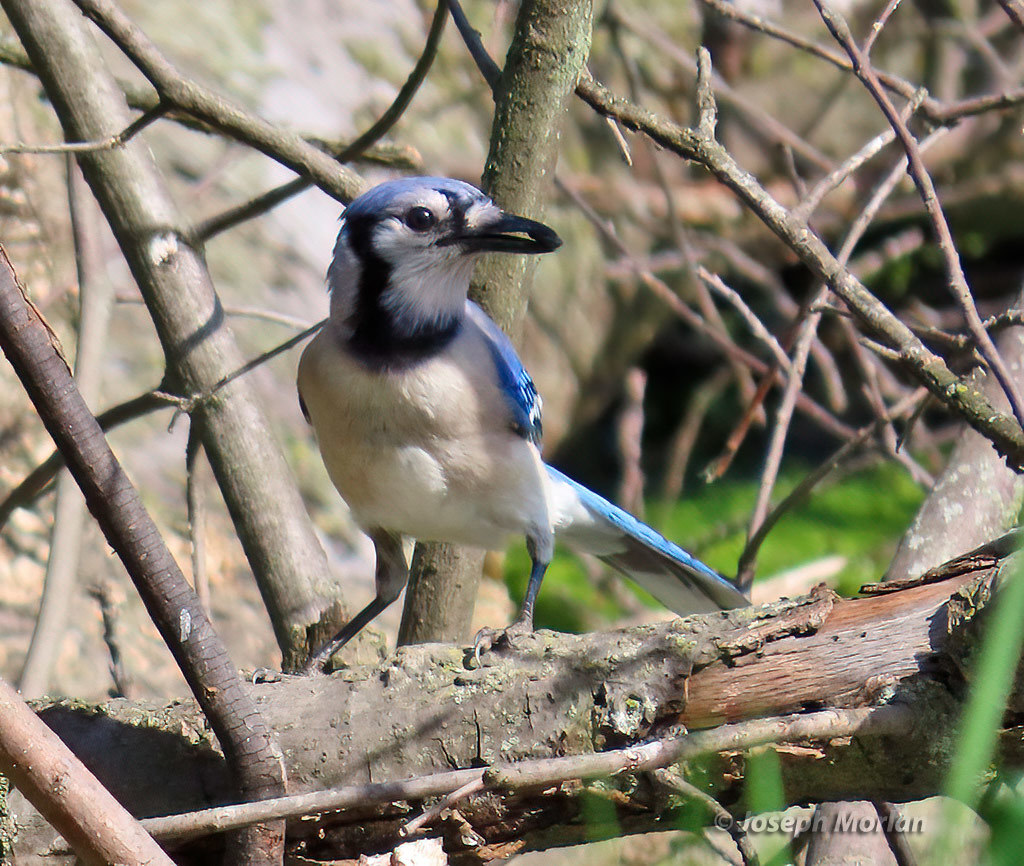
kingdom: Animalia
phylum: Chordata
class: Aves
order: Passeriformes
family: Corvidae
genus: Cyanocitta
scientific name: Cyanocitta cristata
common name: Blue jay
